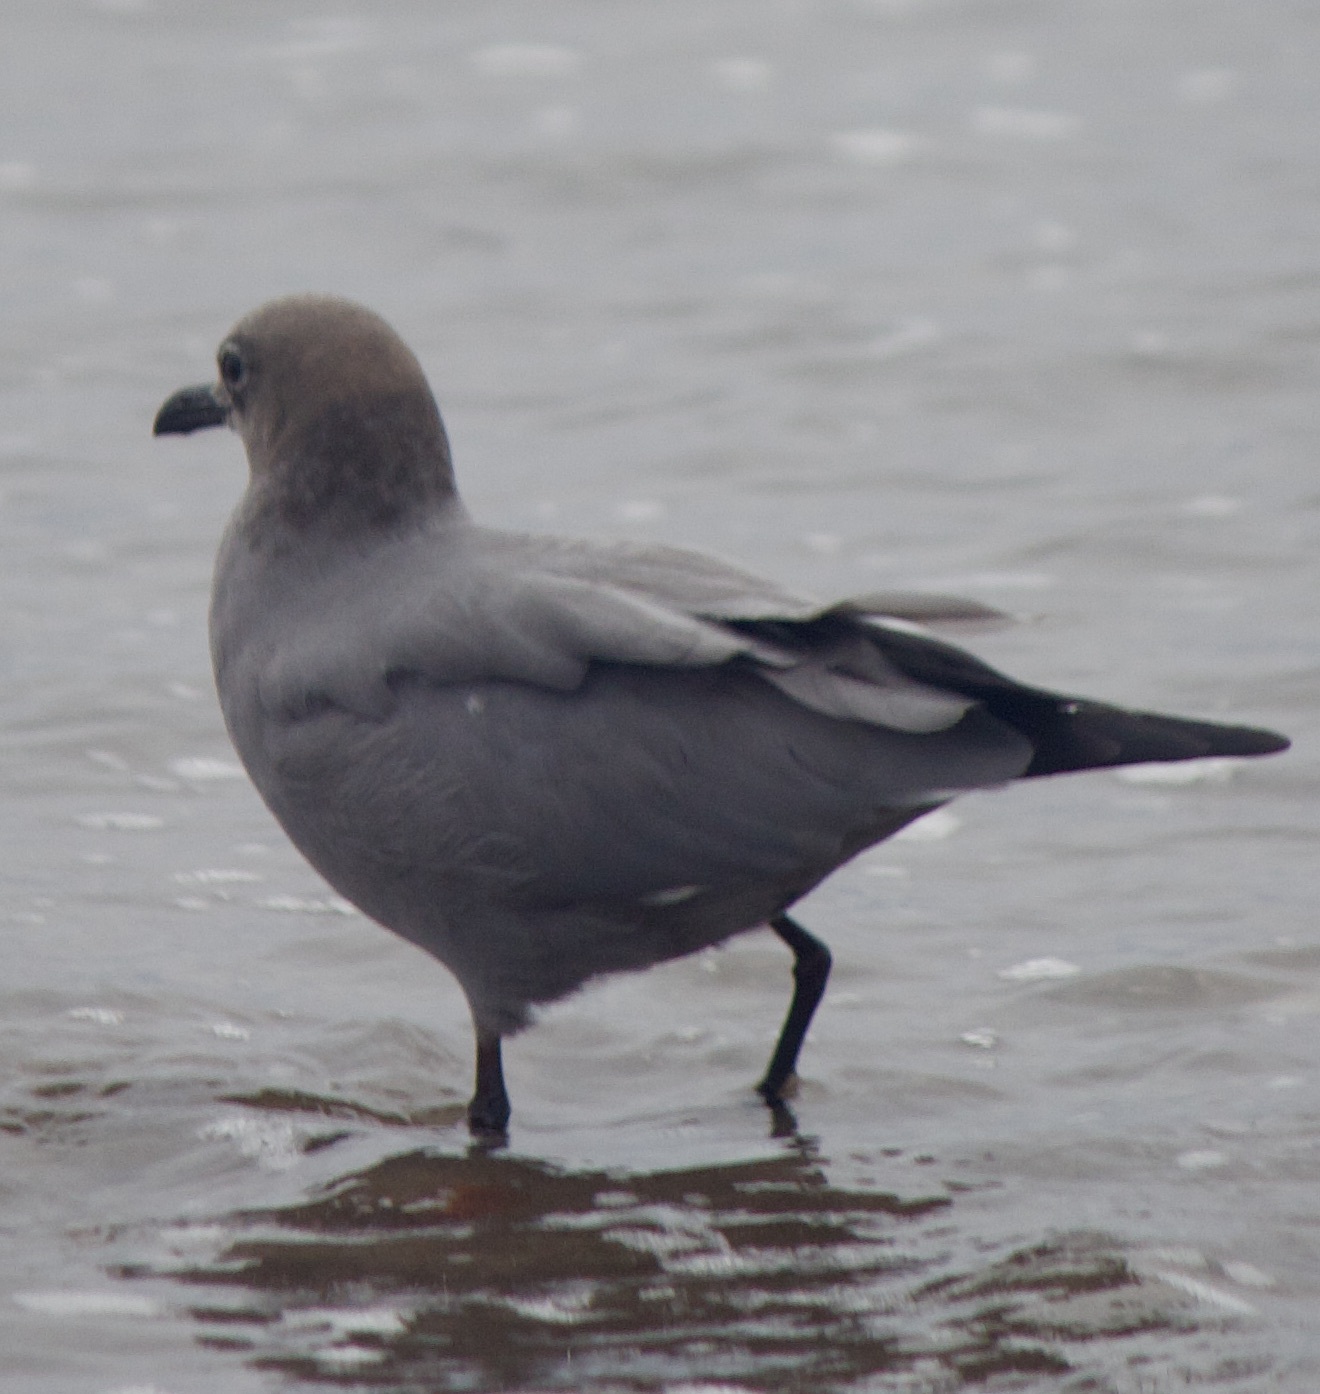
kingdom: Animalia
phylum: Chordata
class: Aves
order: Charadriiformes
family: Laridae
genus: Leucophaeus
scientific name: Leucophaeus modestus
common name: Gray gull
